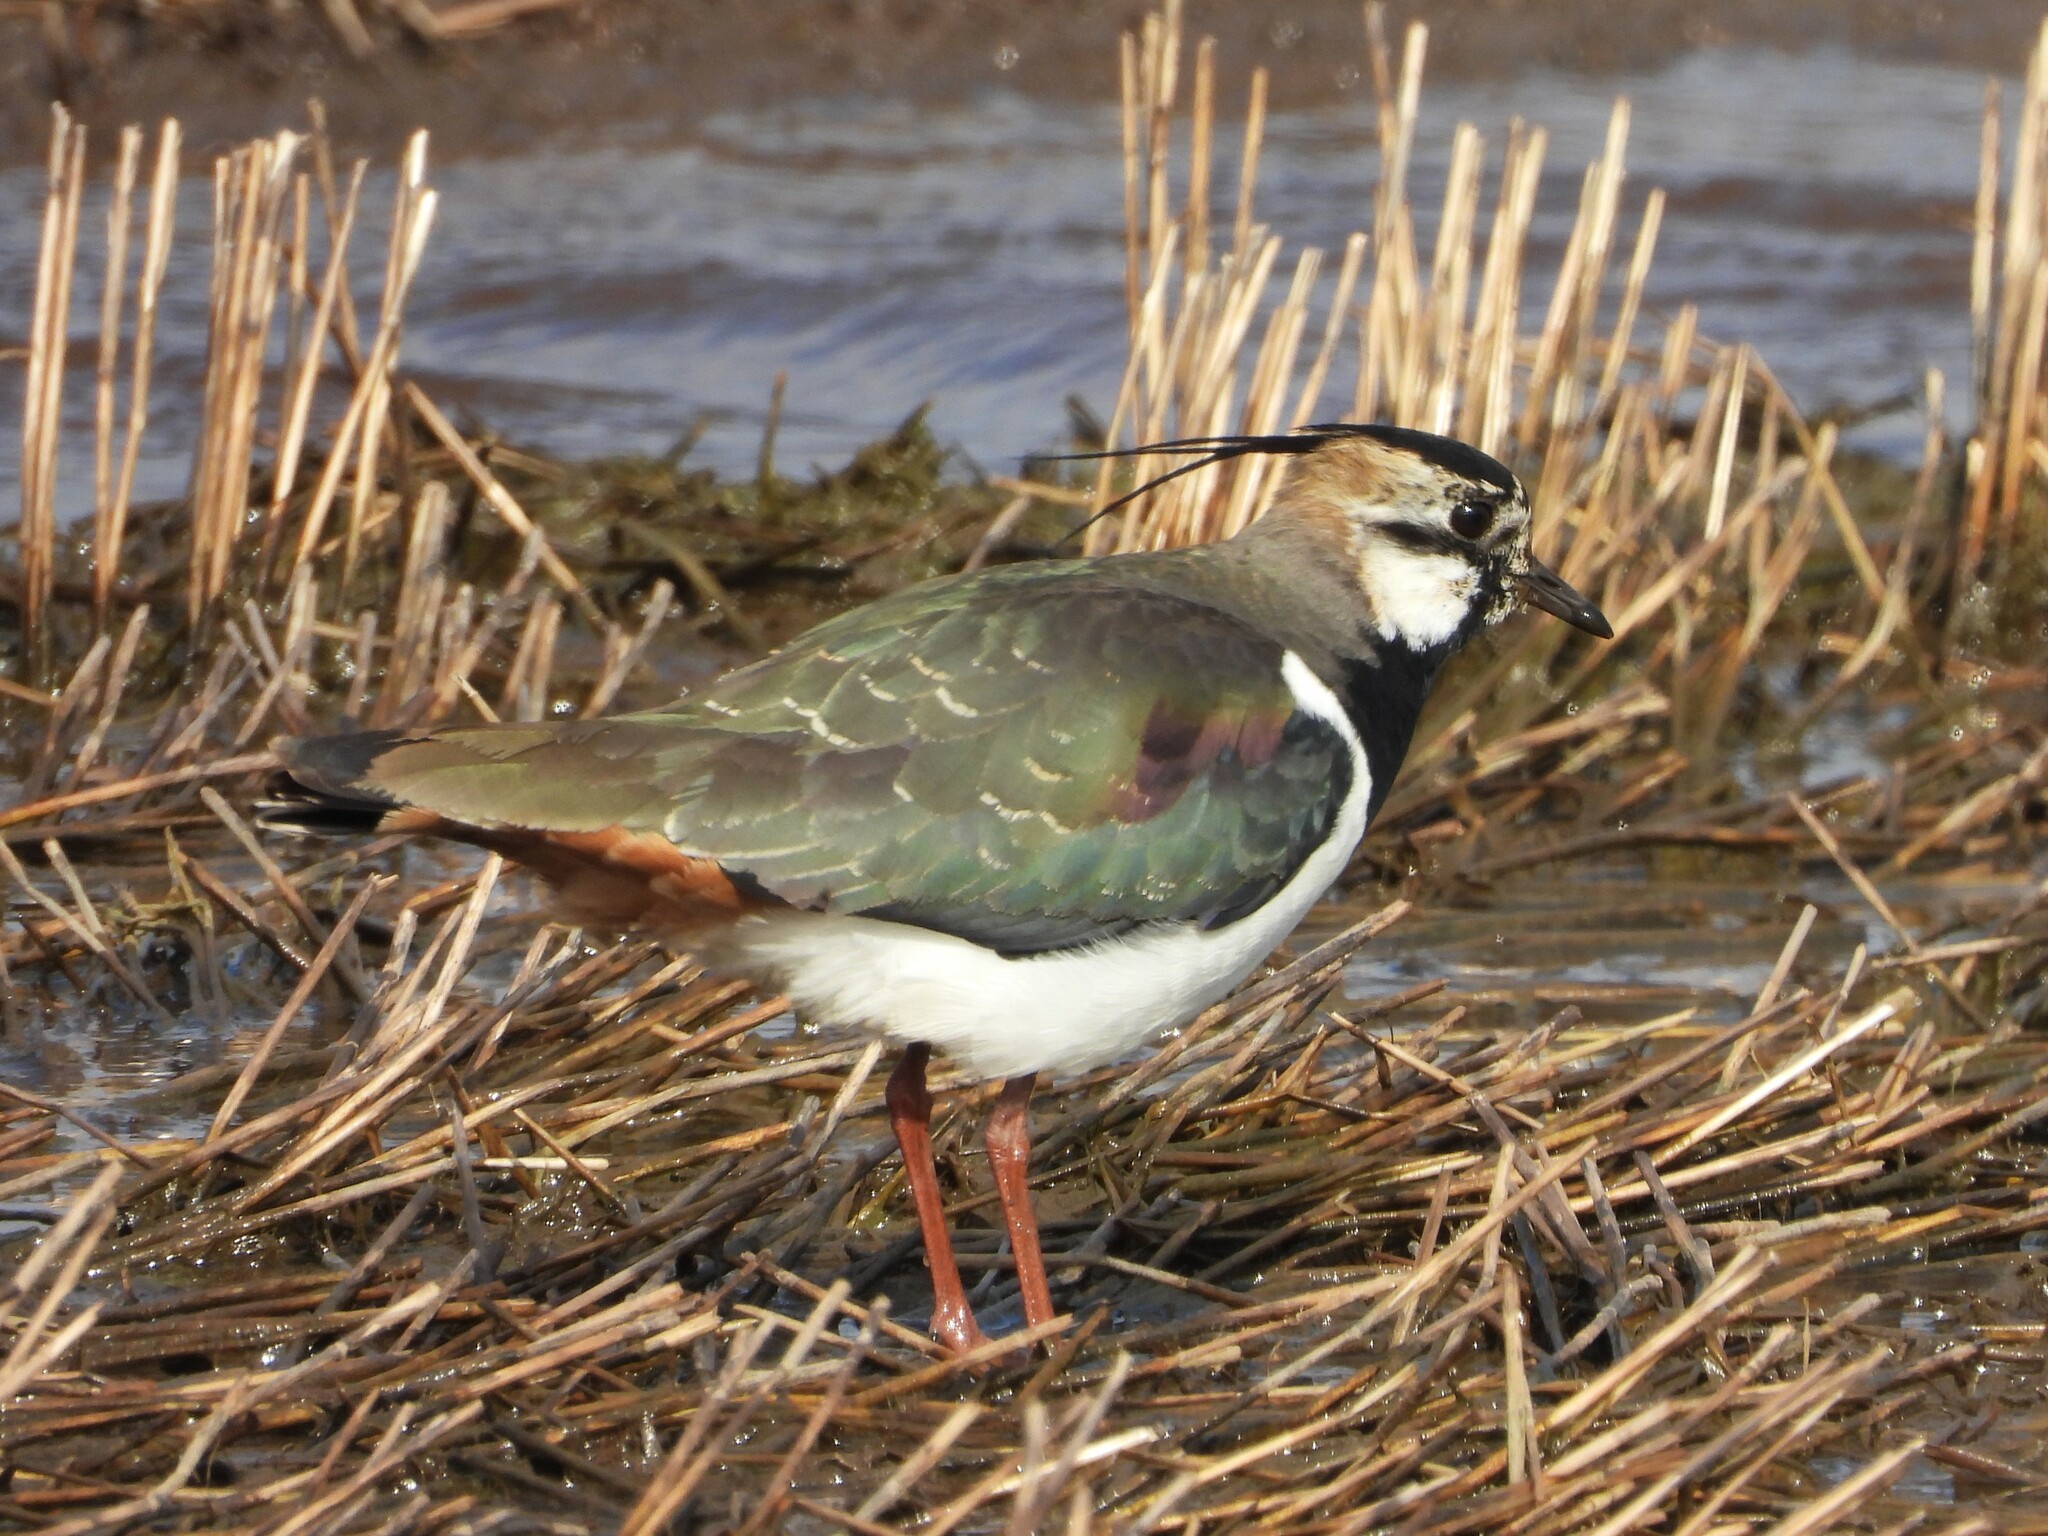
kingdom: Animalia
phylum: Chordata
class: Aves
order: Charadriiformes
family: Charadriidae
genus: Vanellus
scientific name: Vanellus vanellus
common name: Northern lapwing
